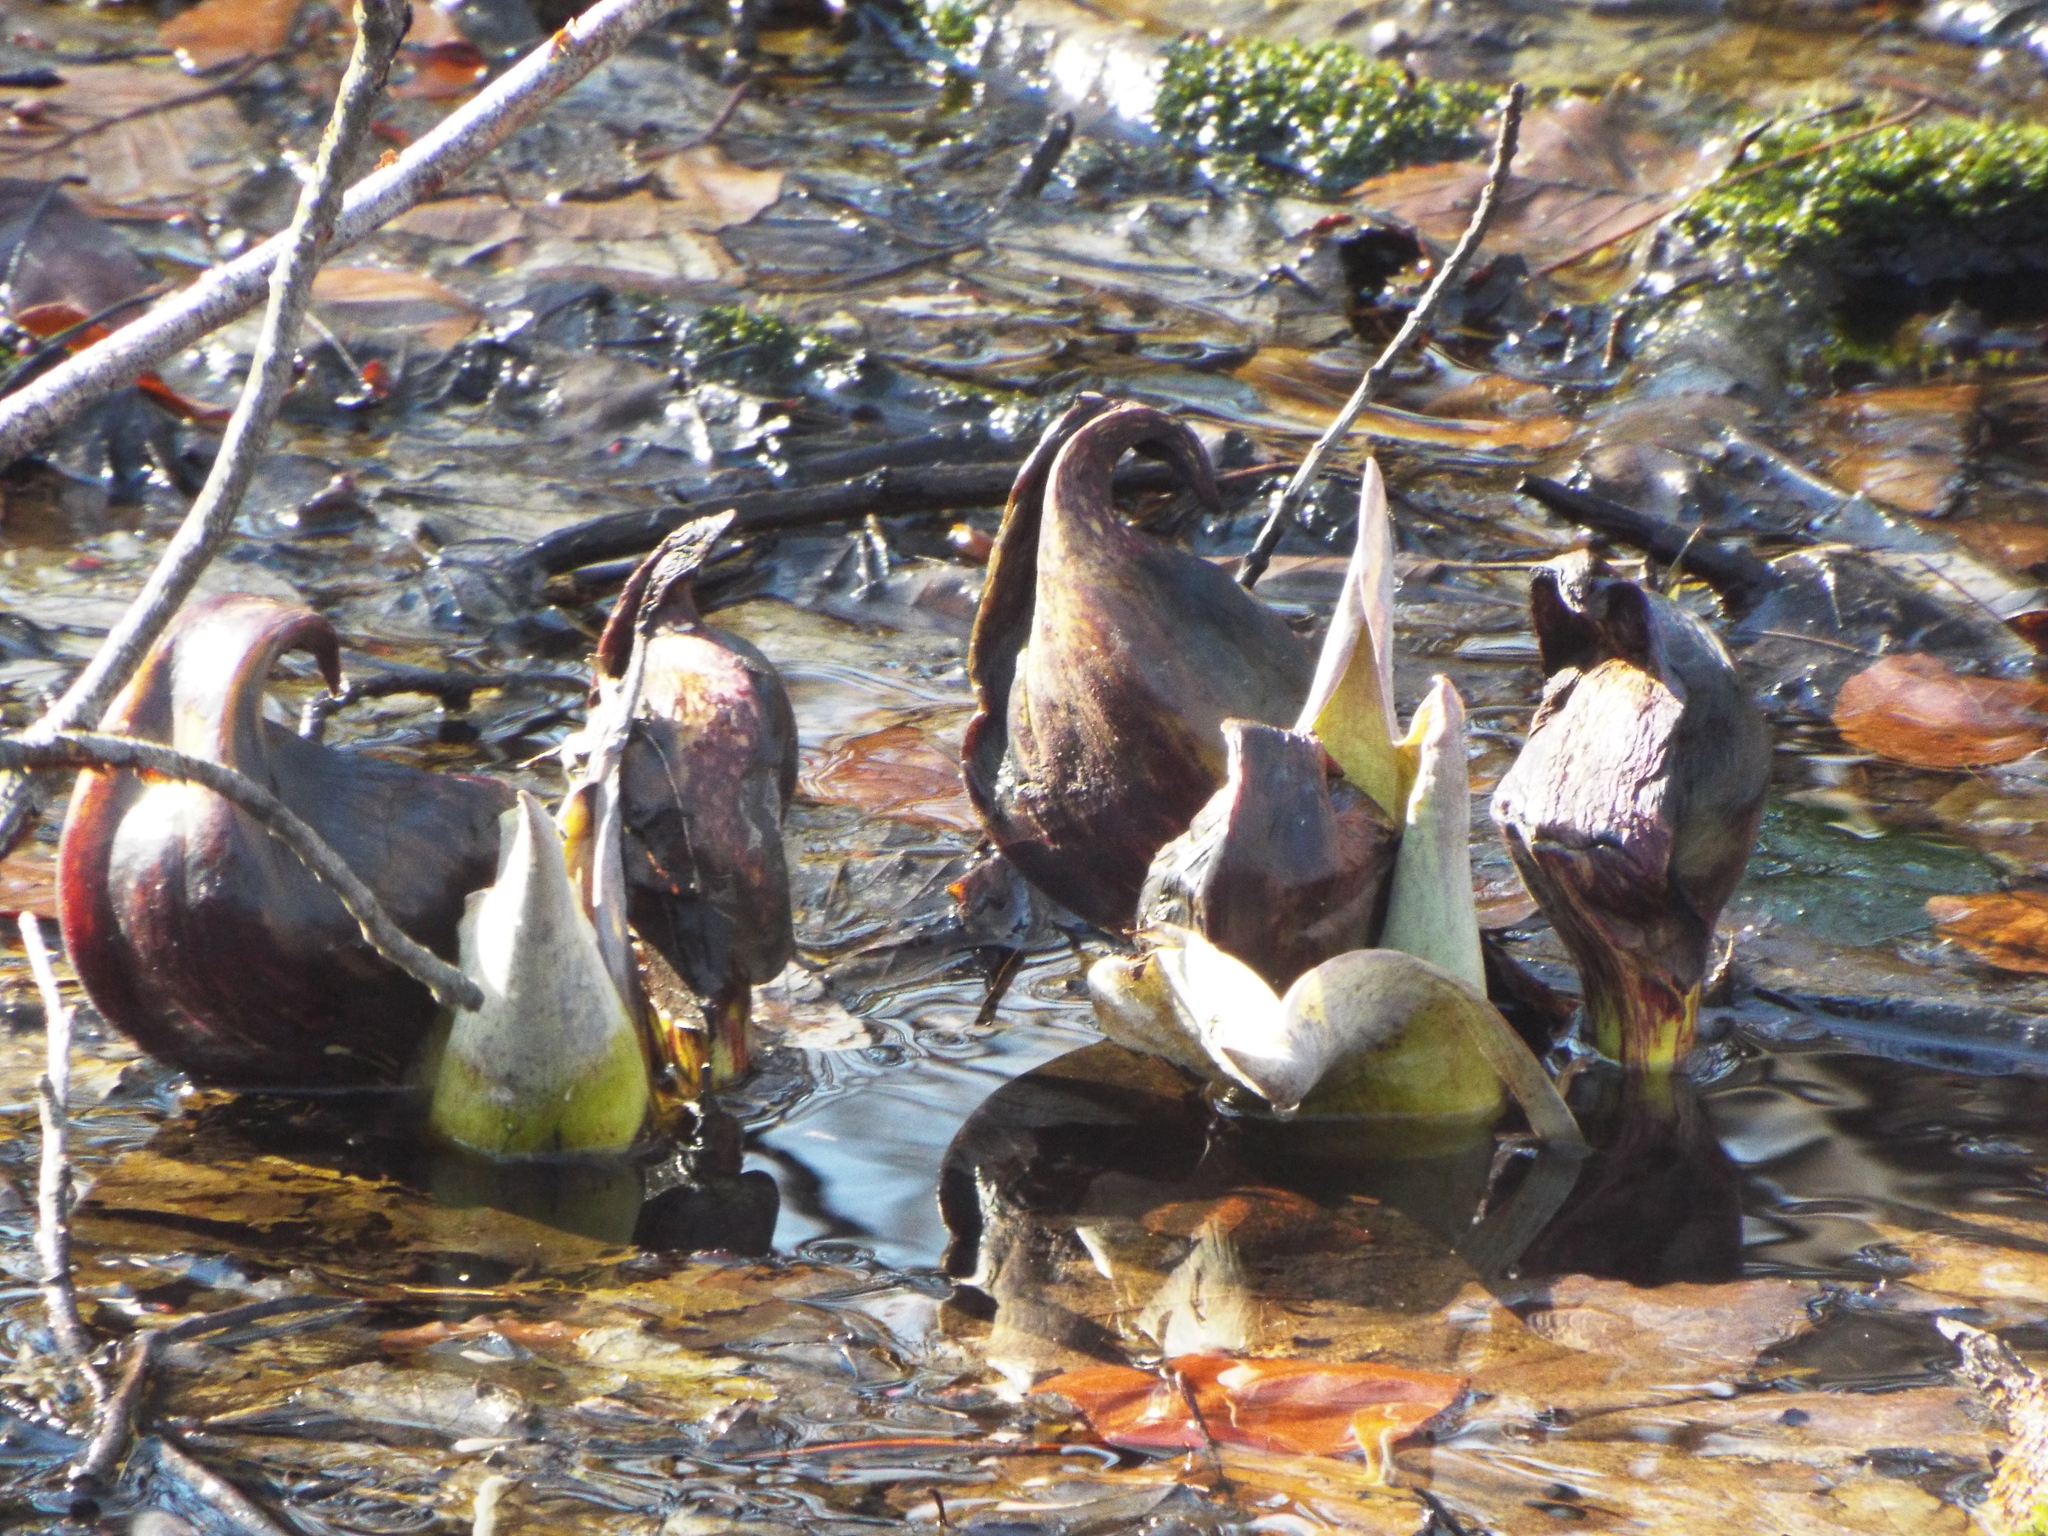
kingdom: Plantae
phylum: Tracheophyta
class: Liliopsida
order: Alismatales
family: Araceae
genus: Symplocarpus
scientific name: Symplocarpus foetidus
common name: Eastern skunk cabbage
